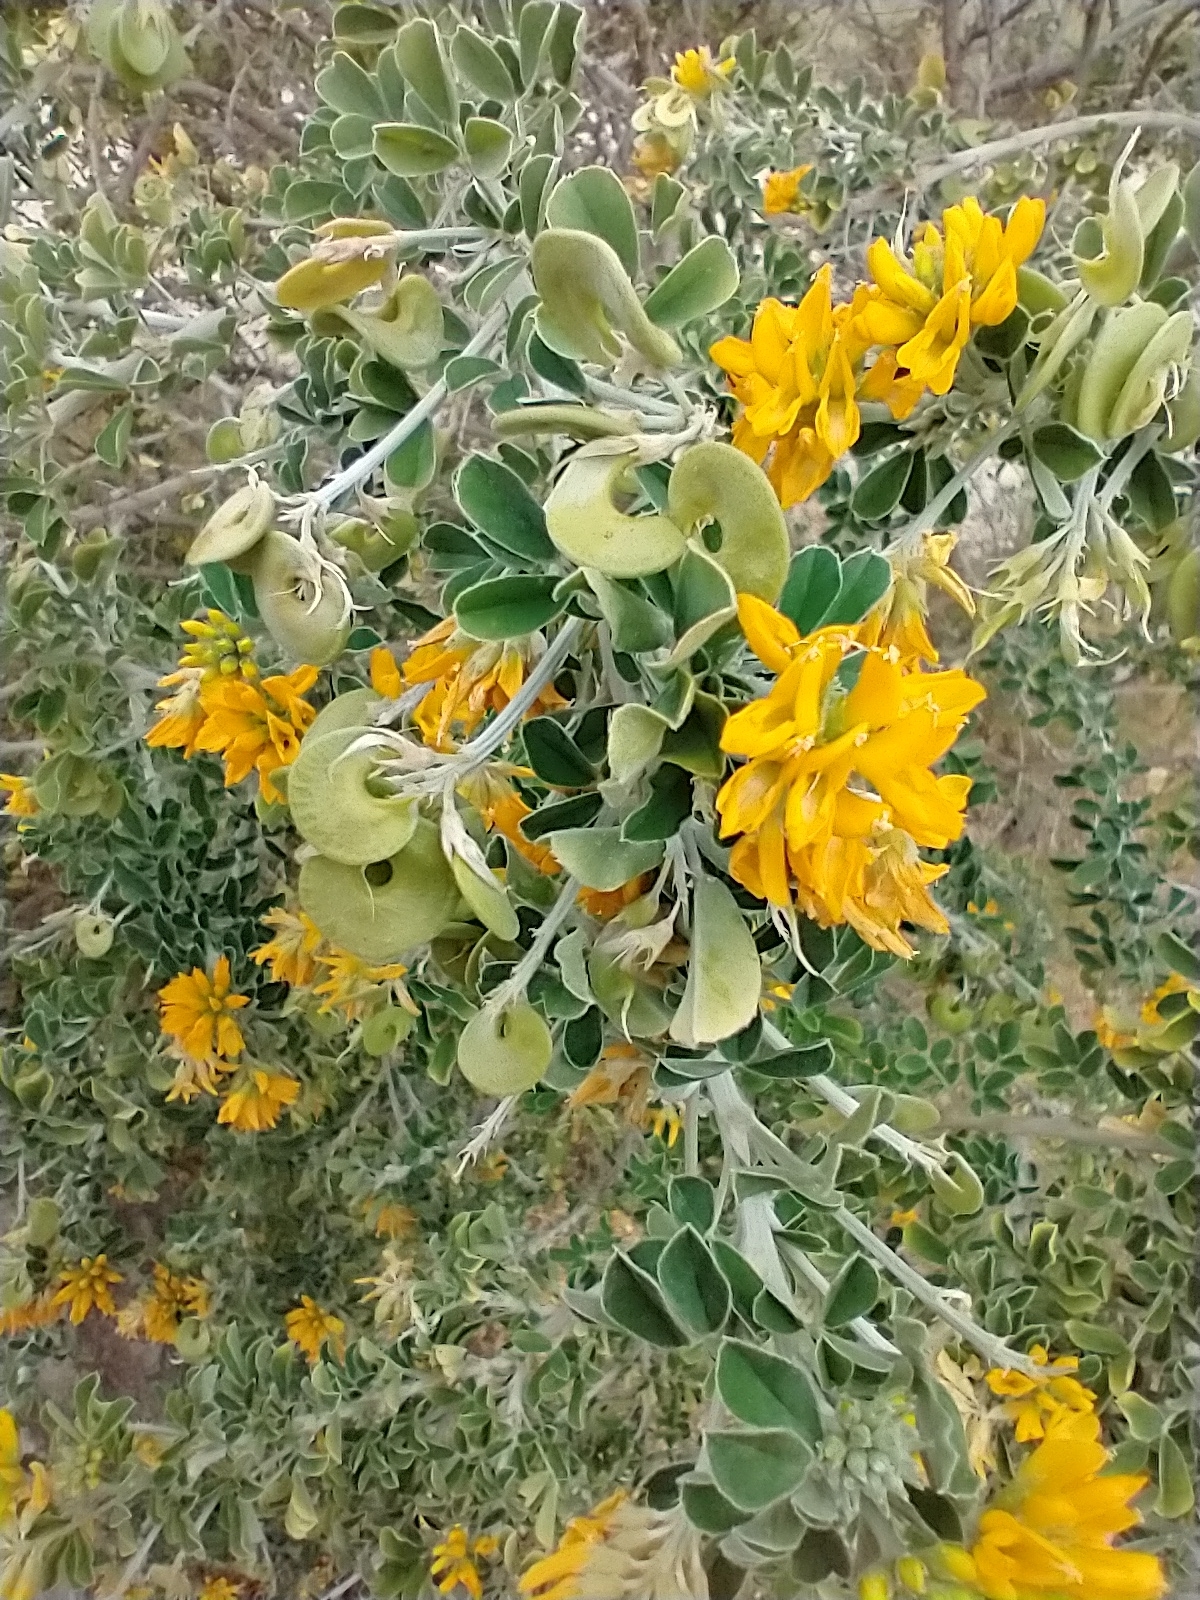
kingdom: Plantae
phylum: Tracheophyta
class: Magnoliopsida
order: Fabales
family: Fabaceae
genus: Medicago
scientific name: Medicago arborea
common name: Moon trefoil
